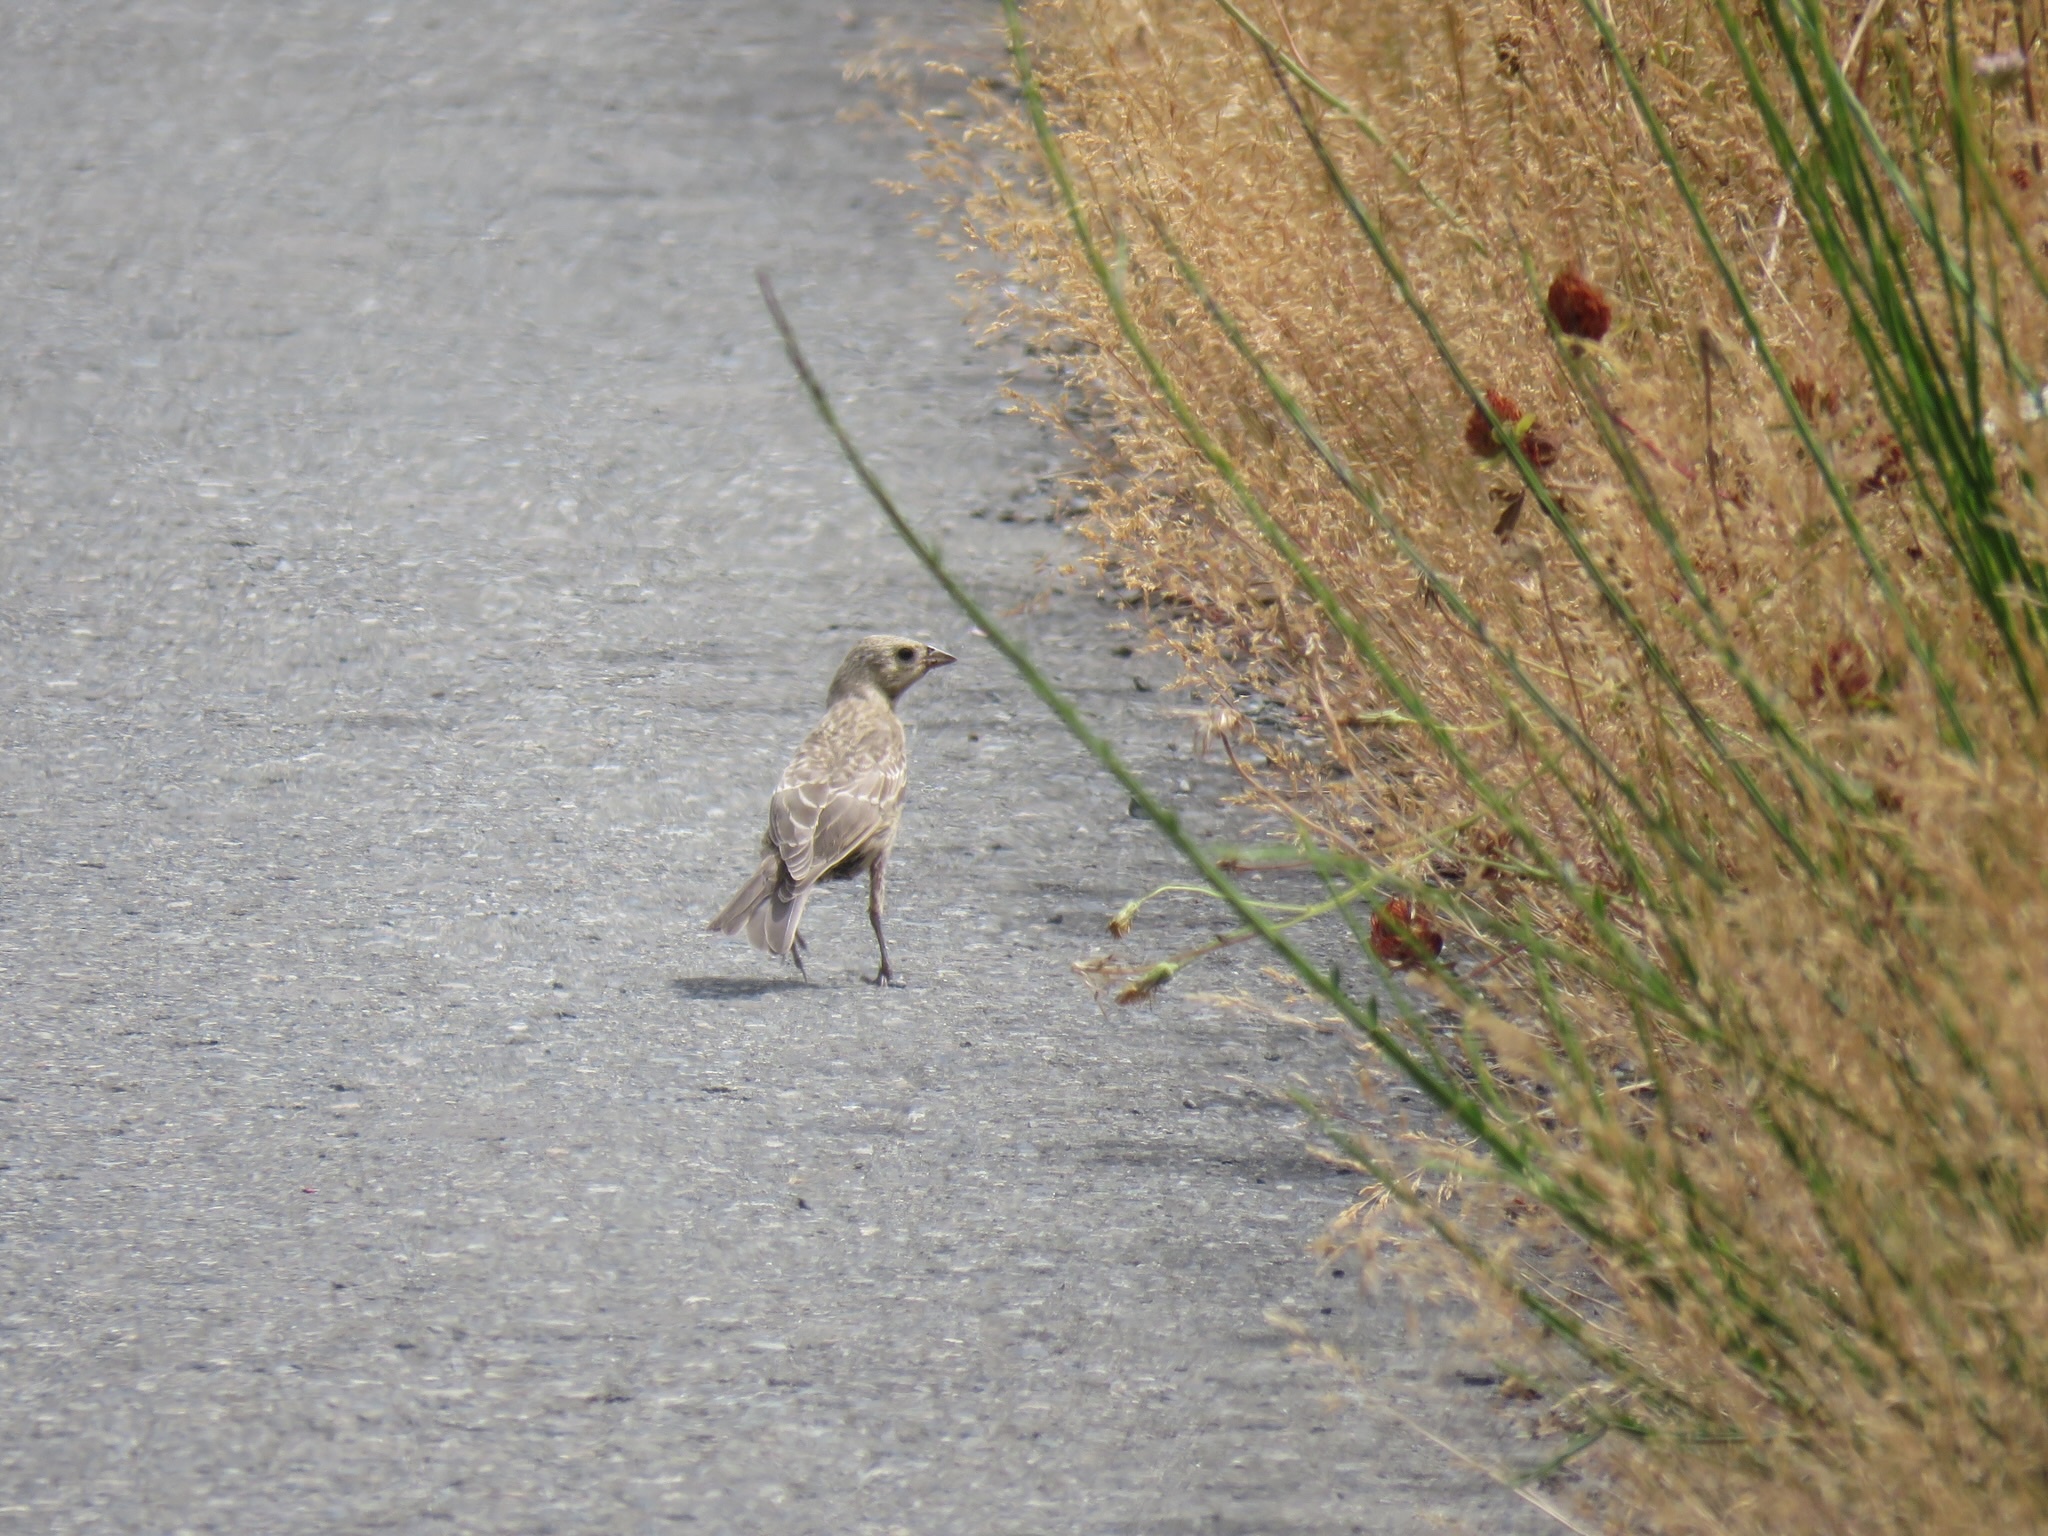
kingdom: Animalia
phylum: Chordata
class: Aves
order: Passeriformes
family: Icteridae
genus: Molothrus
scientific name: Molothrus ater
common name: Brown-headed cowbird
